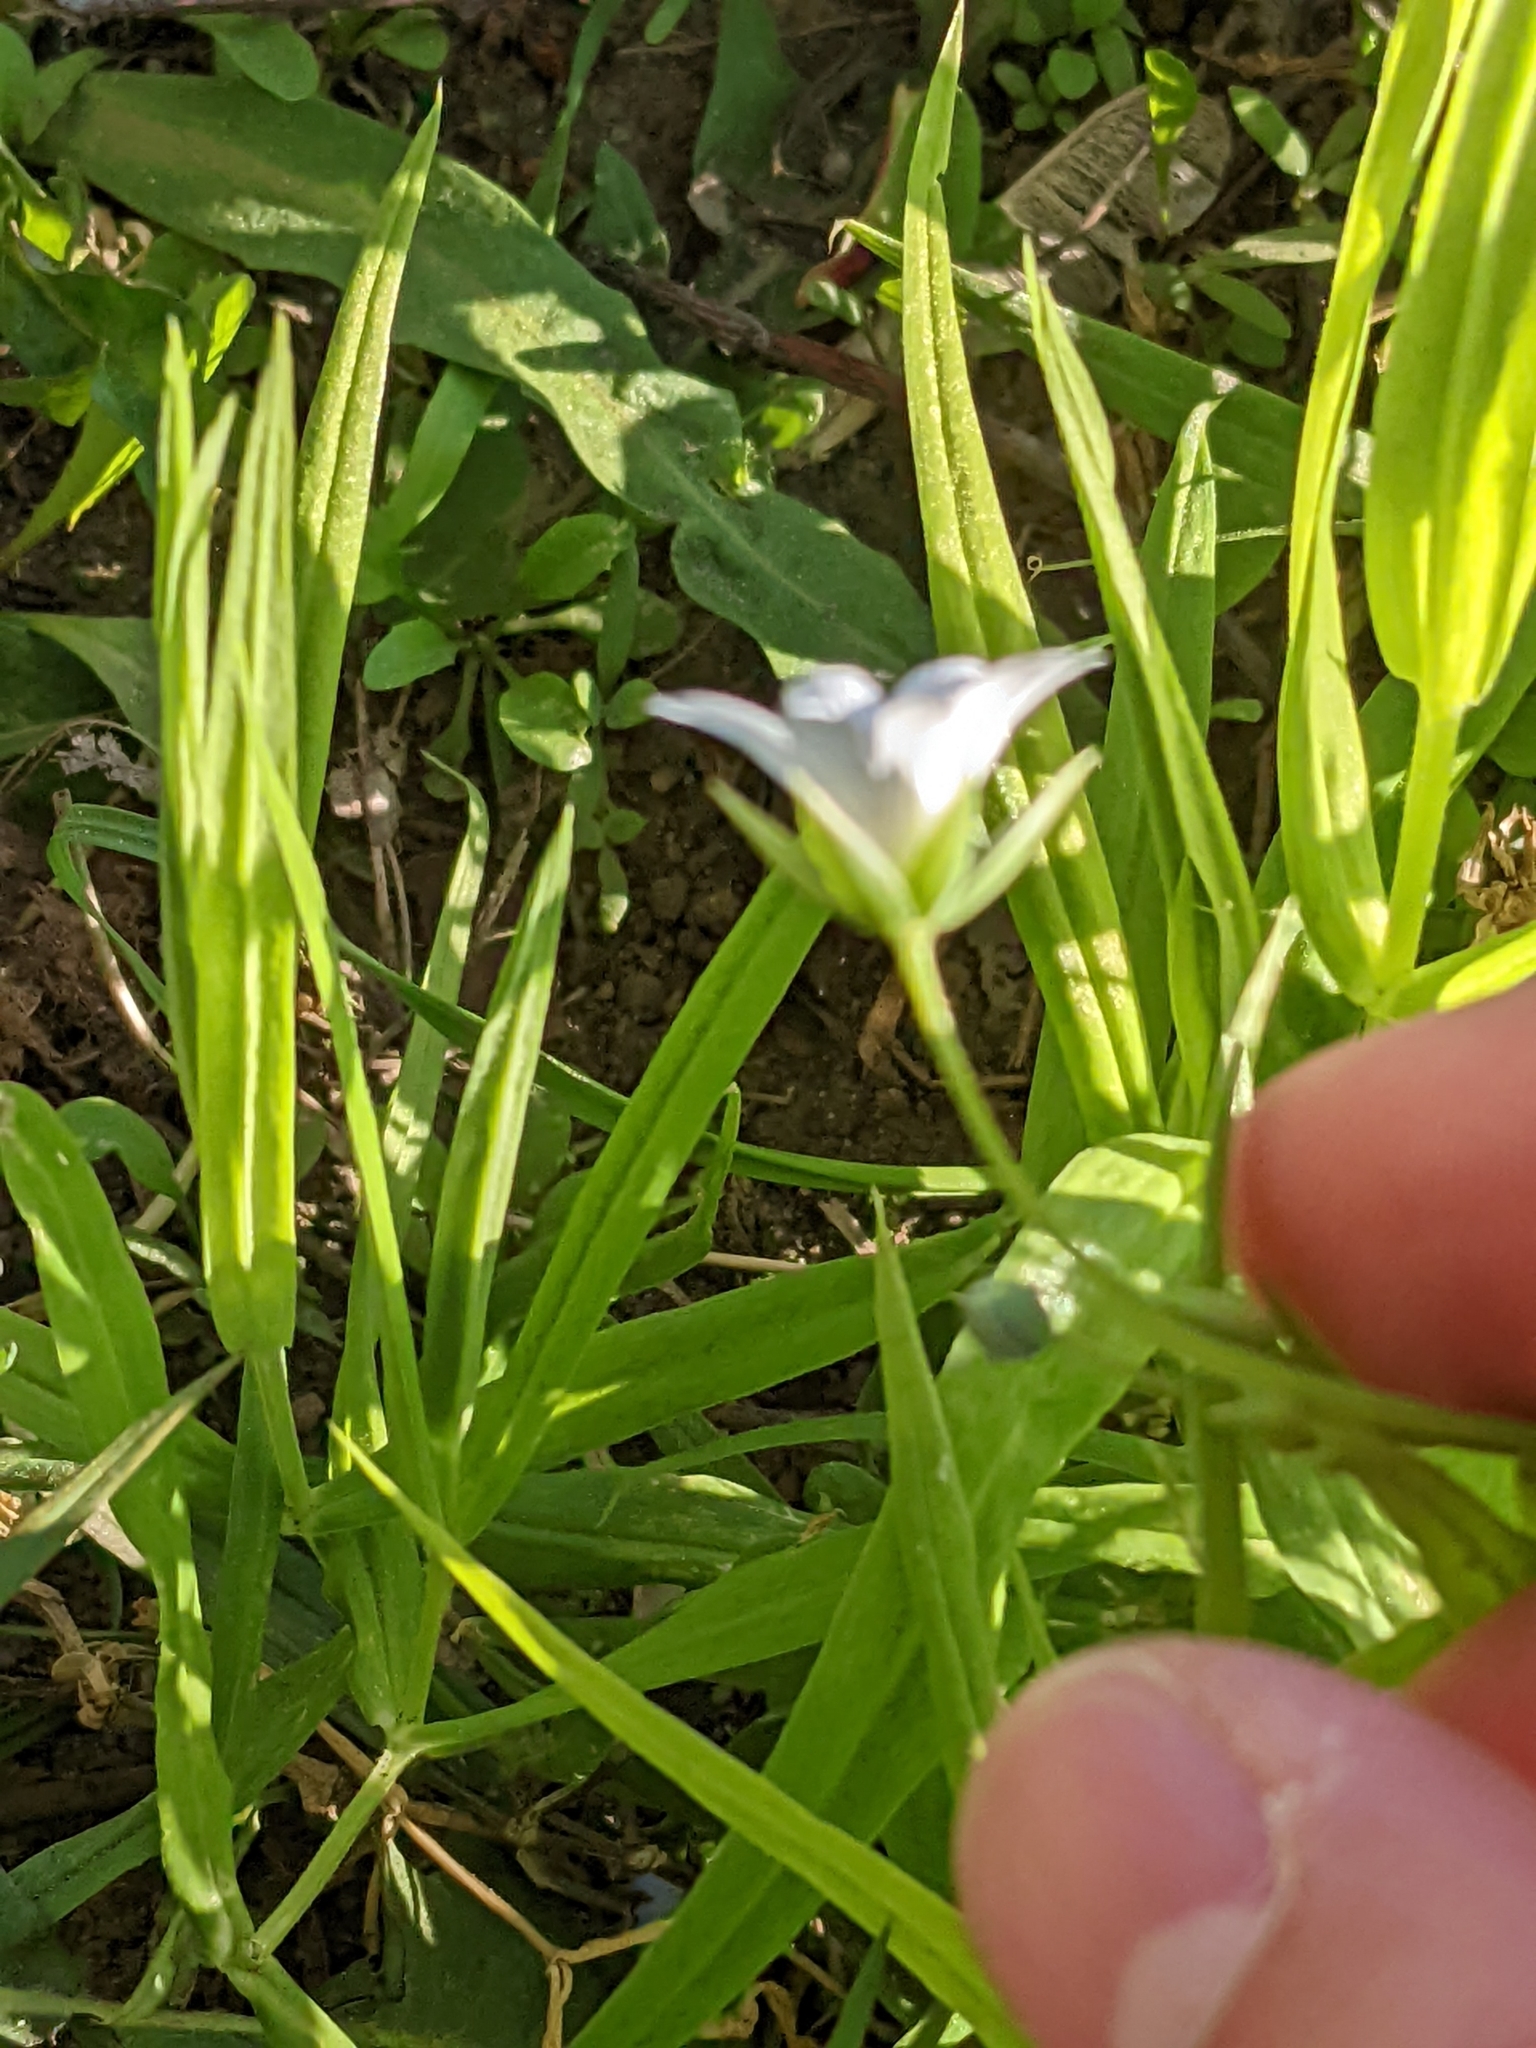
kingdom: Plantae
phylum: Tracheophyta
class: Magnoliopsida
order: Caryophyllales
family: Caryophyllaceae
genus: Rabelera
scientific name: Rabelera holostea
